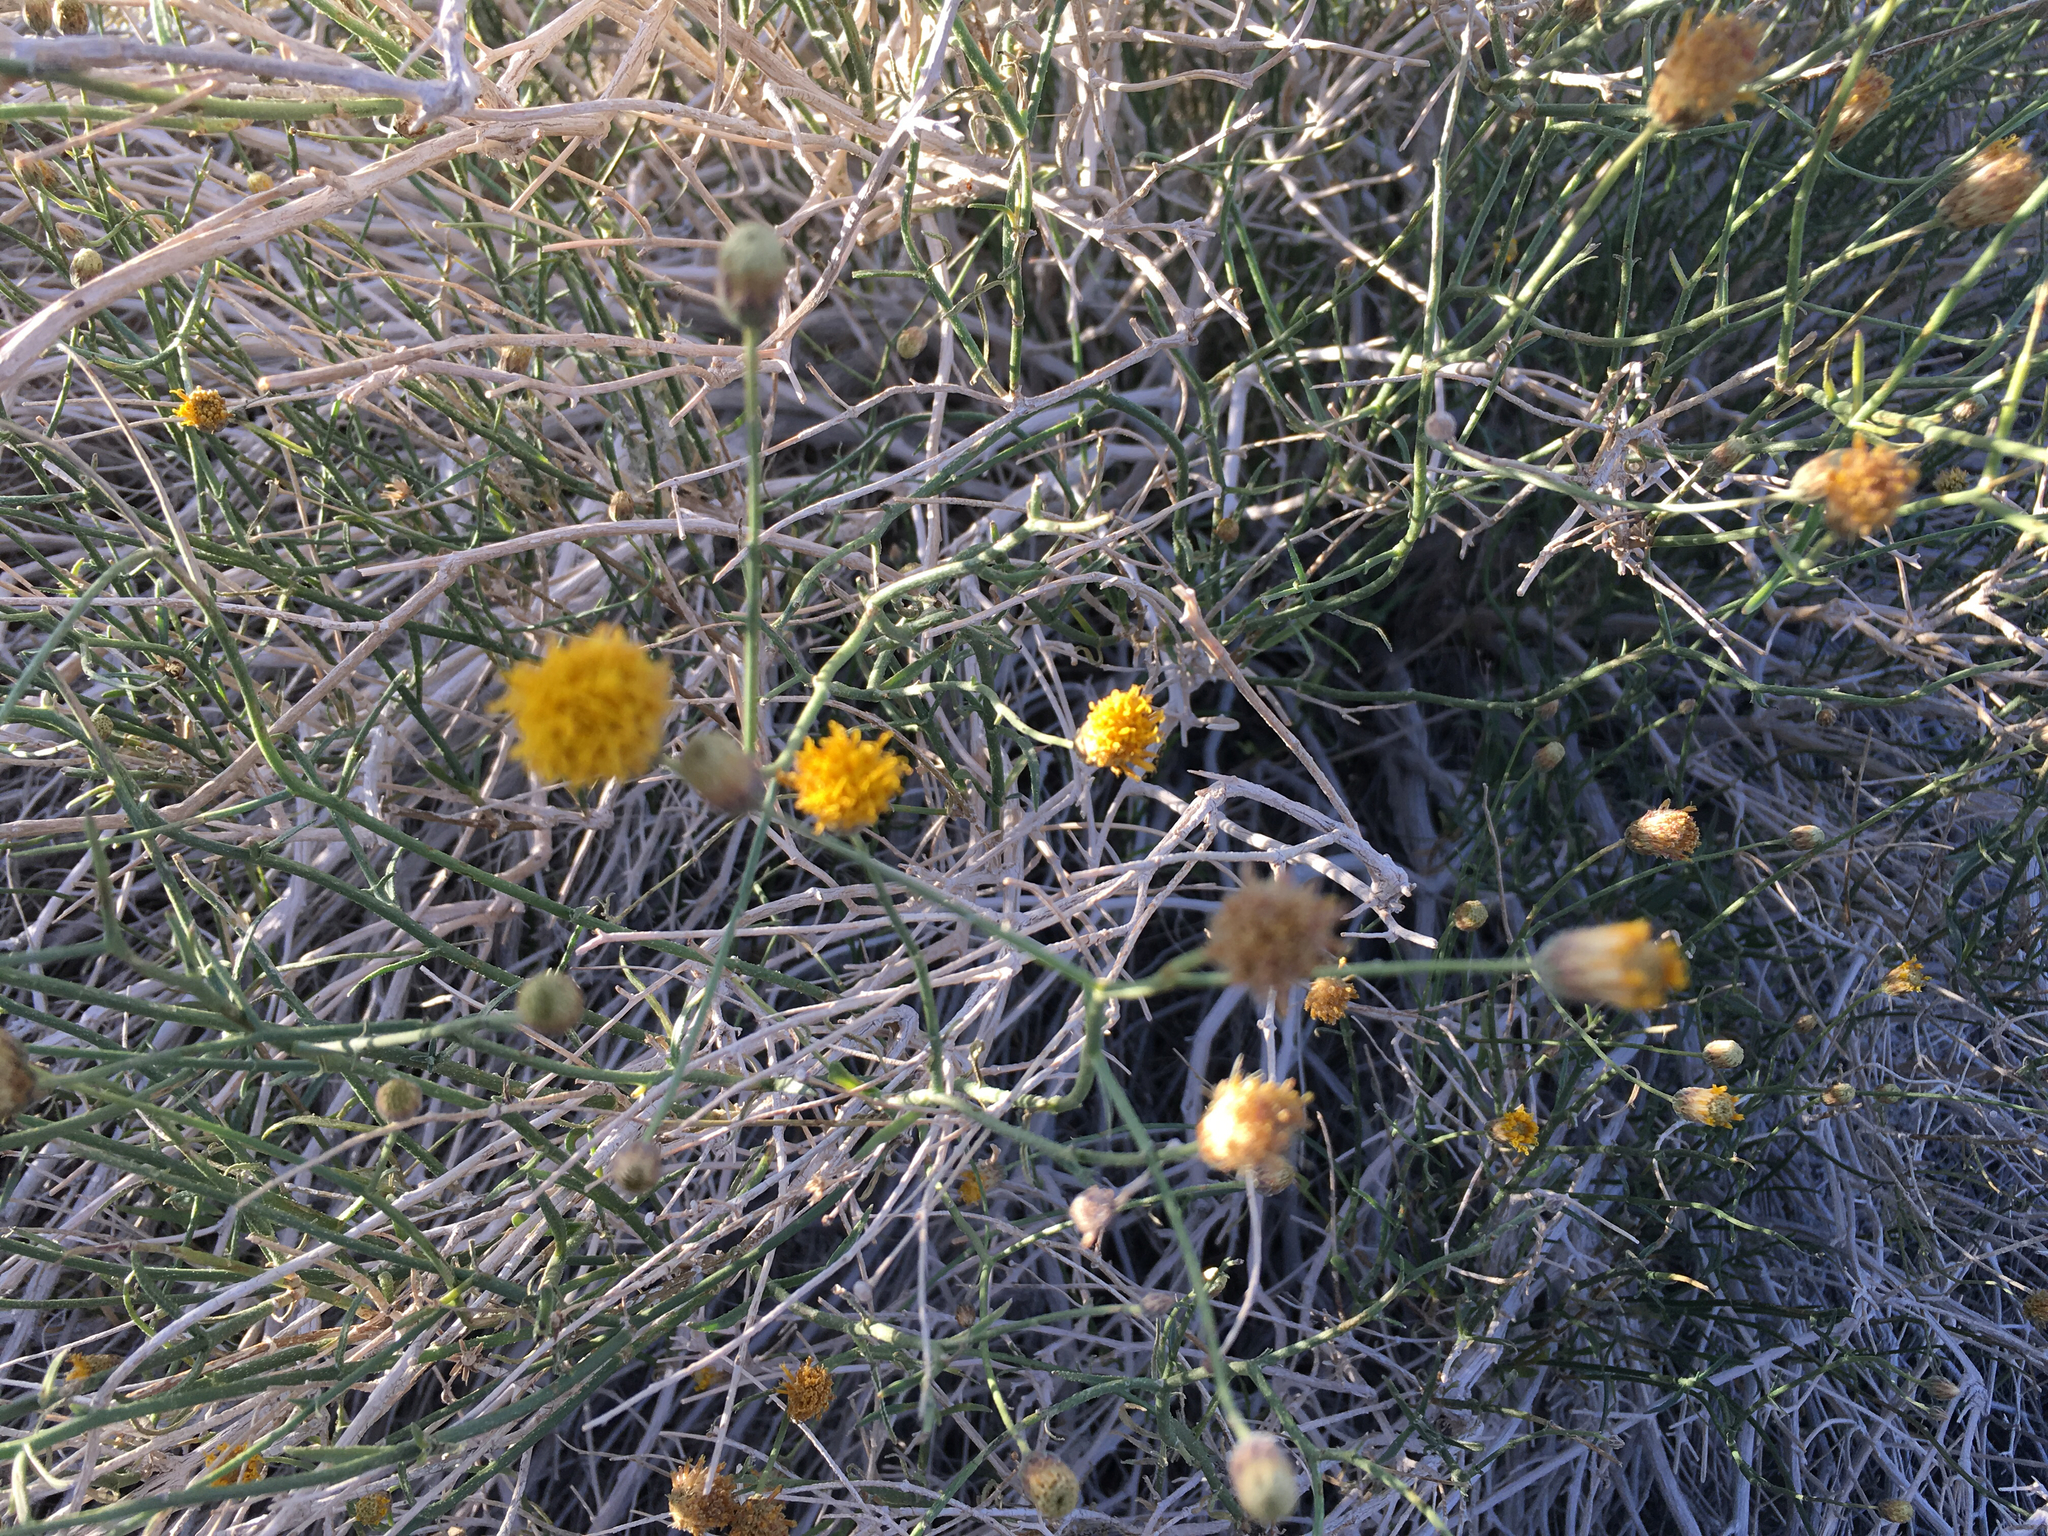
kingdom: Plantae
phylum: Tracheophyta
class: Magnoliopsida
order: Asterales
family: Asteraceae
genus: Bebbia
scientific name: Bebbia juncea
